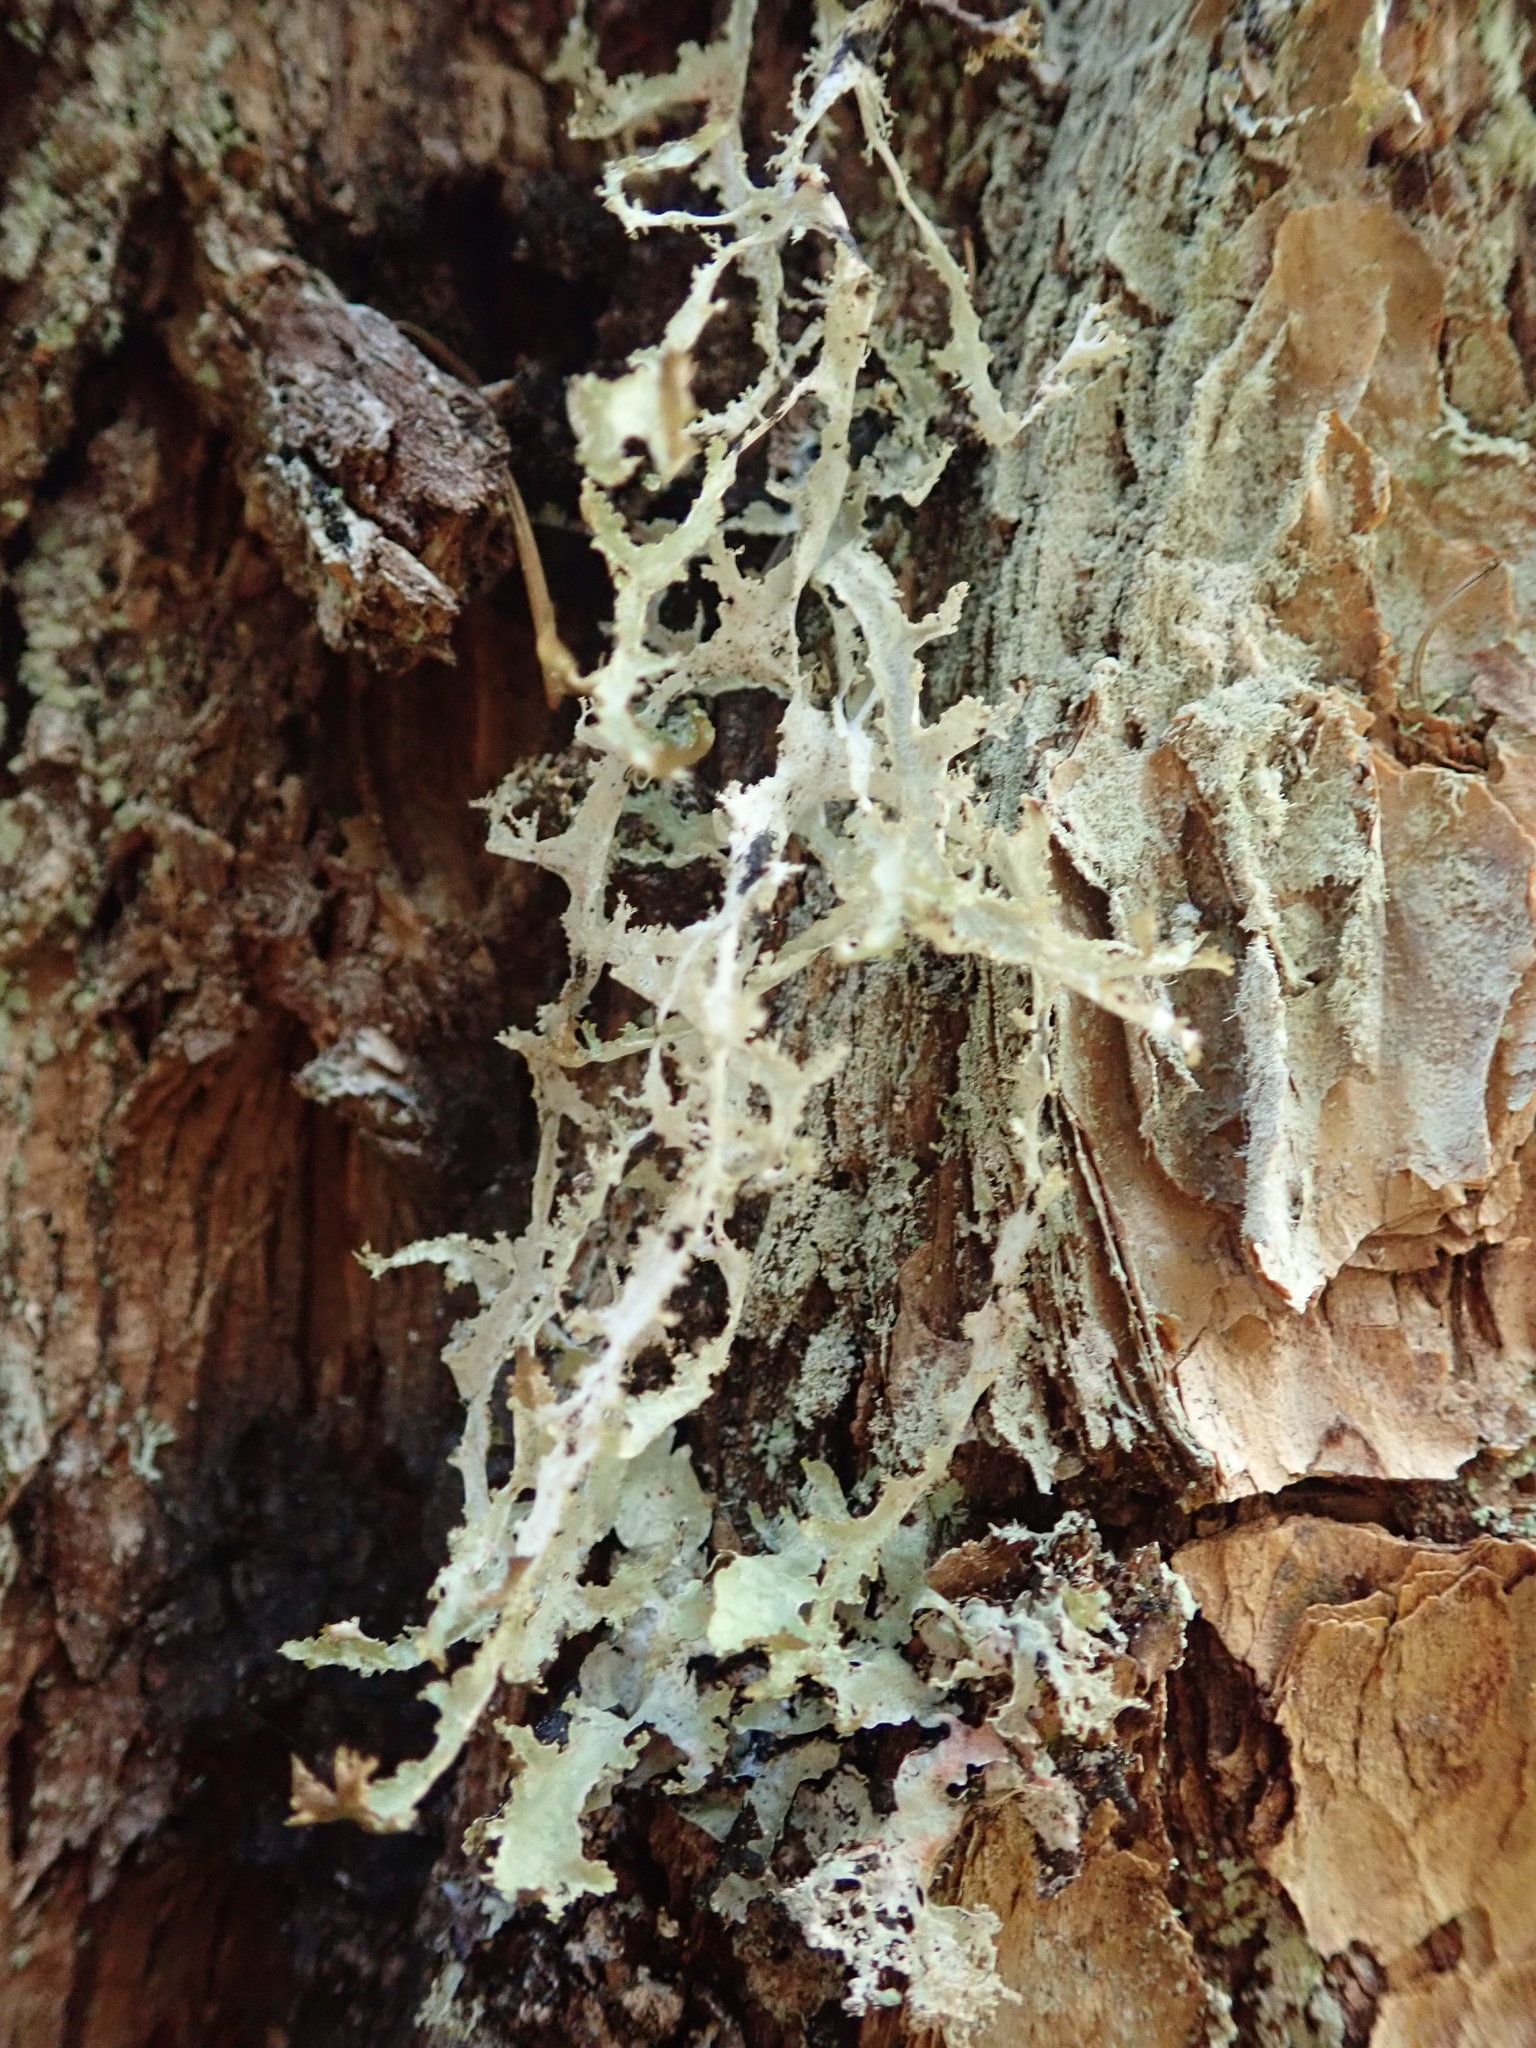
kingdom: Fungi
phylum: Ascomycota
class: Lecanoromycetes
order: Lecanorales
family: Parmeliaceae
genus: Platismatia
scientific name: Platismatia herrei
